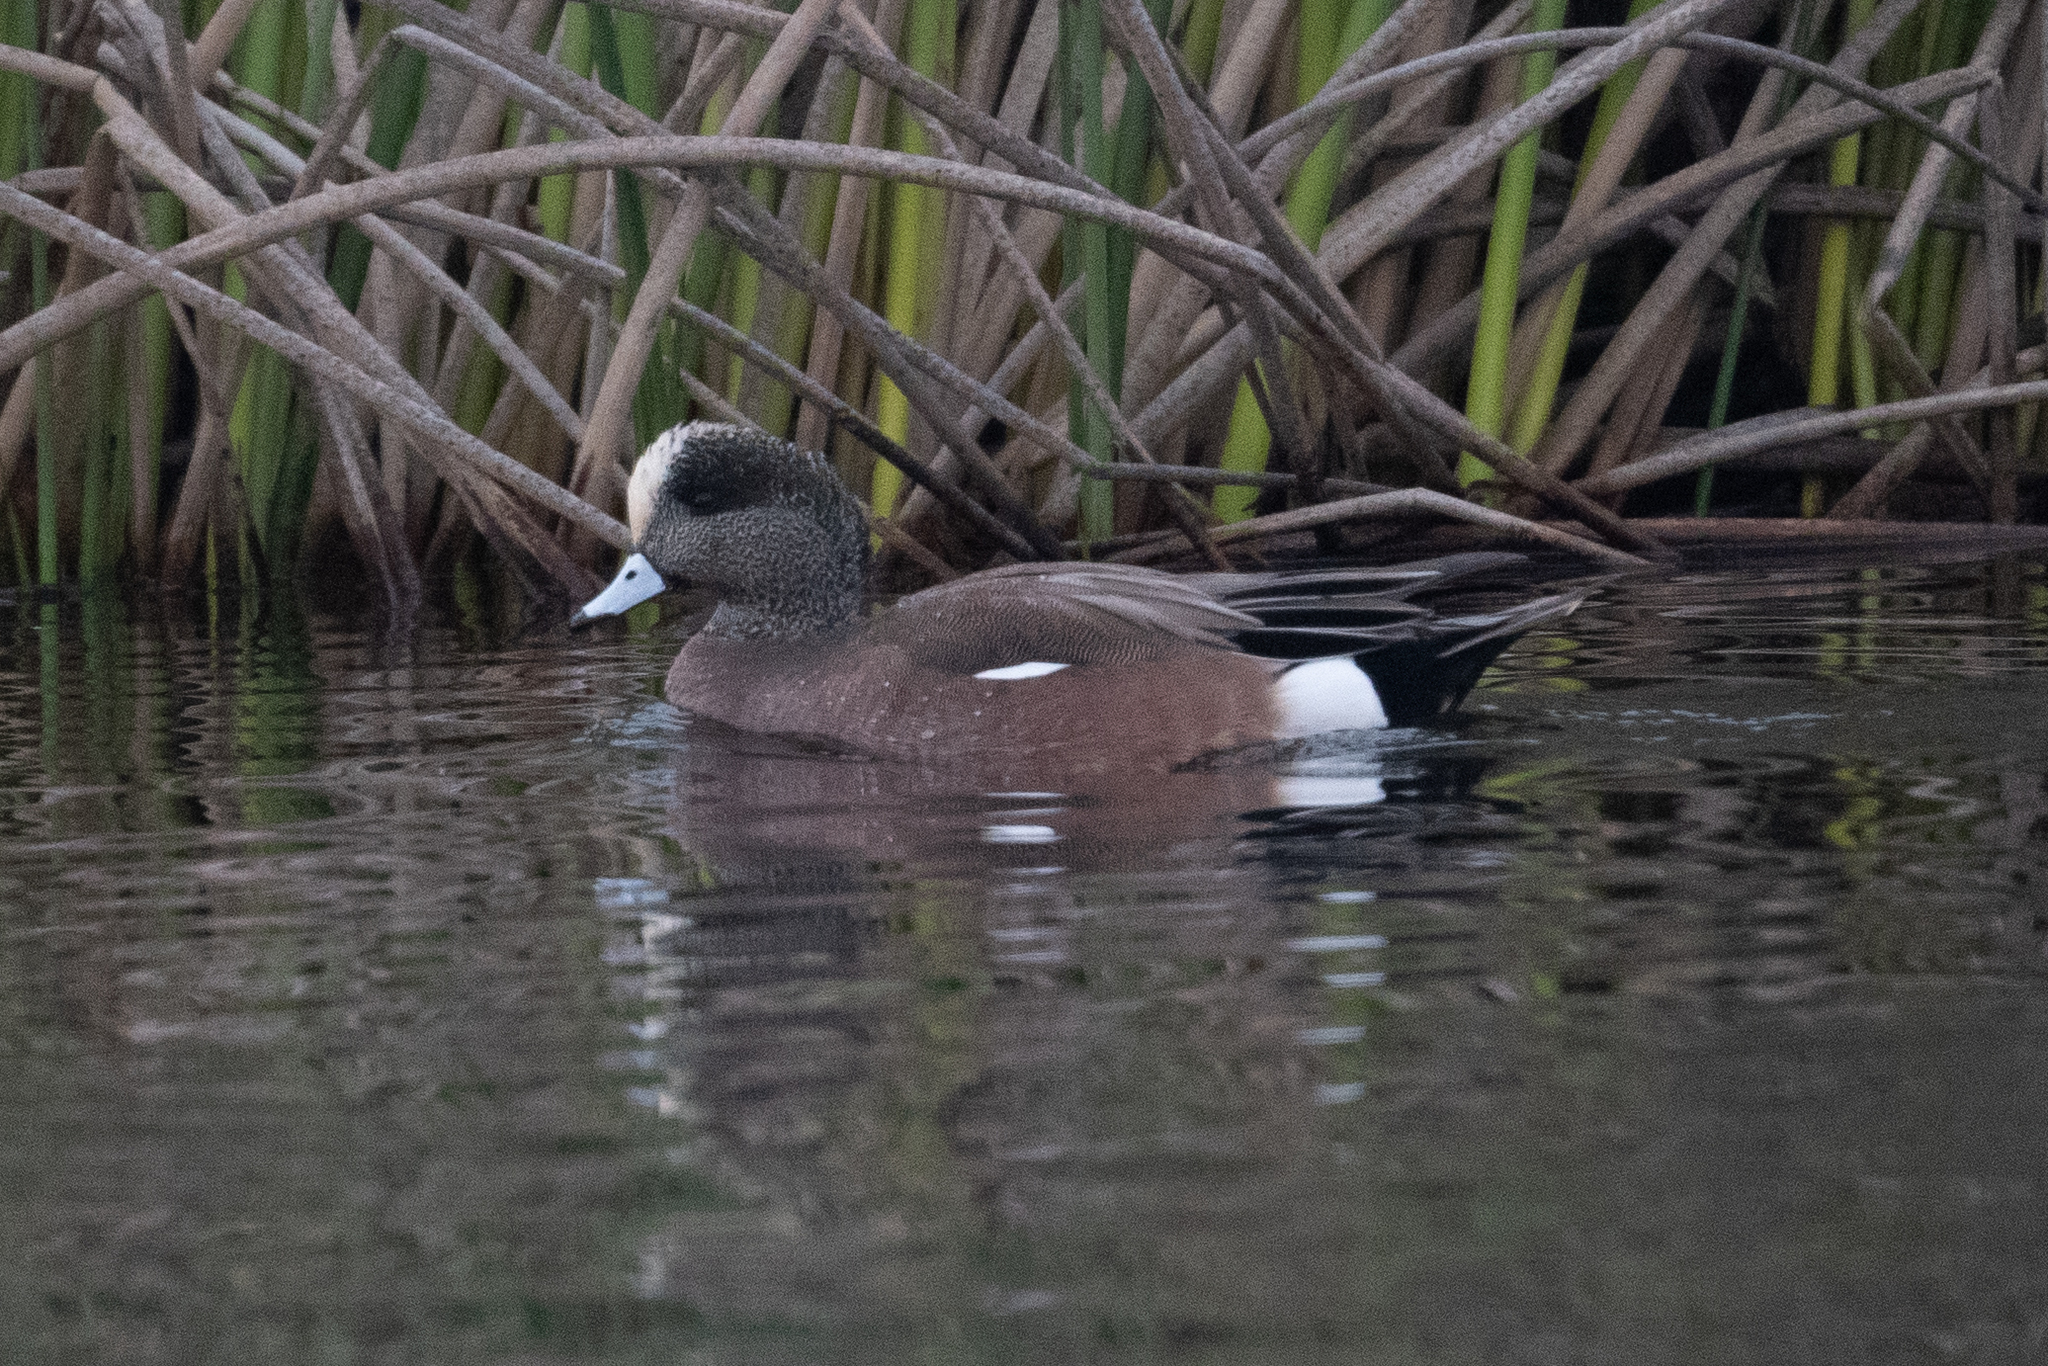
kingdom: Animalia
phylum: Chordata
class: Aves
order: Anseriformes
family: Anatidae
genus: Mareca
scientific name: Mareca americana
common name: American wigeon
